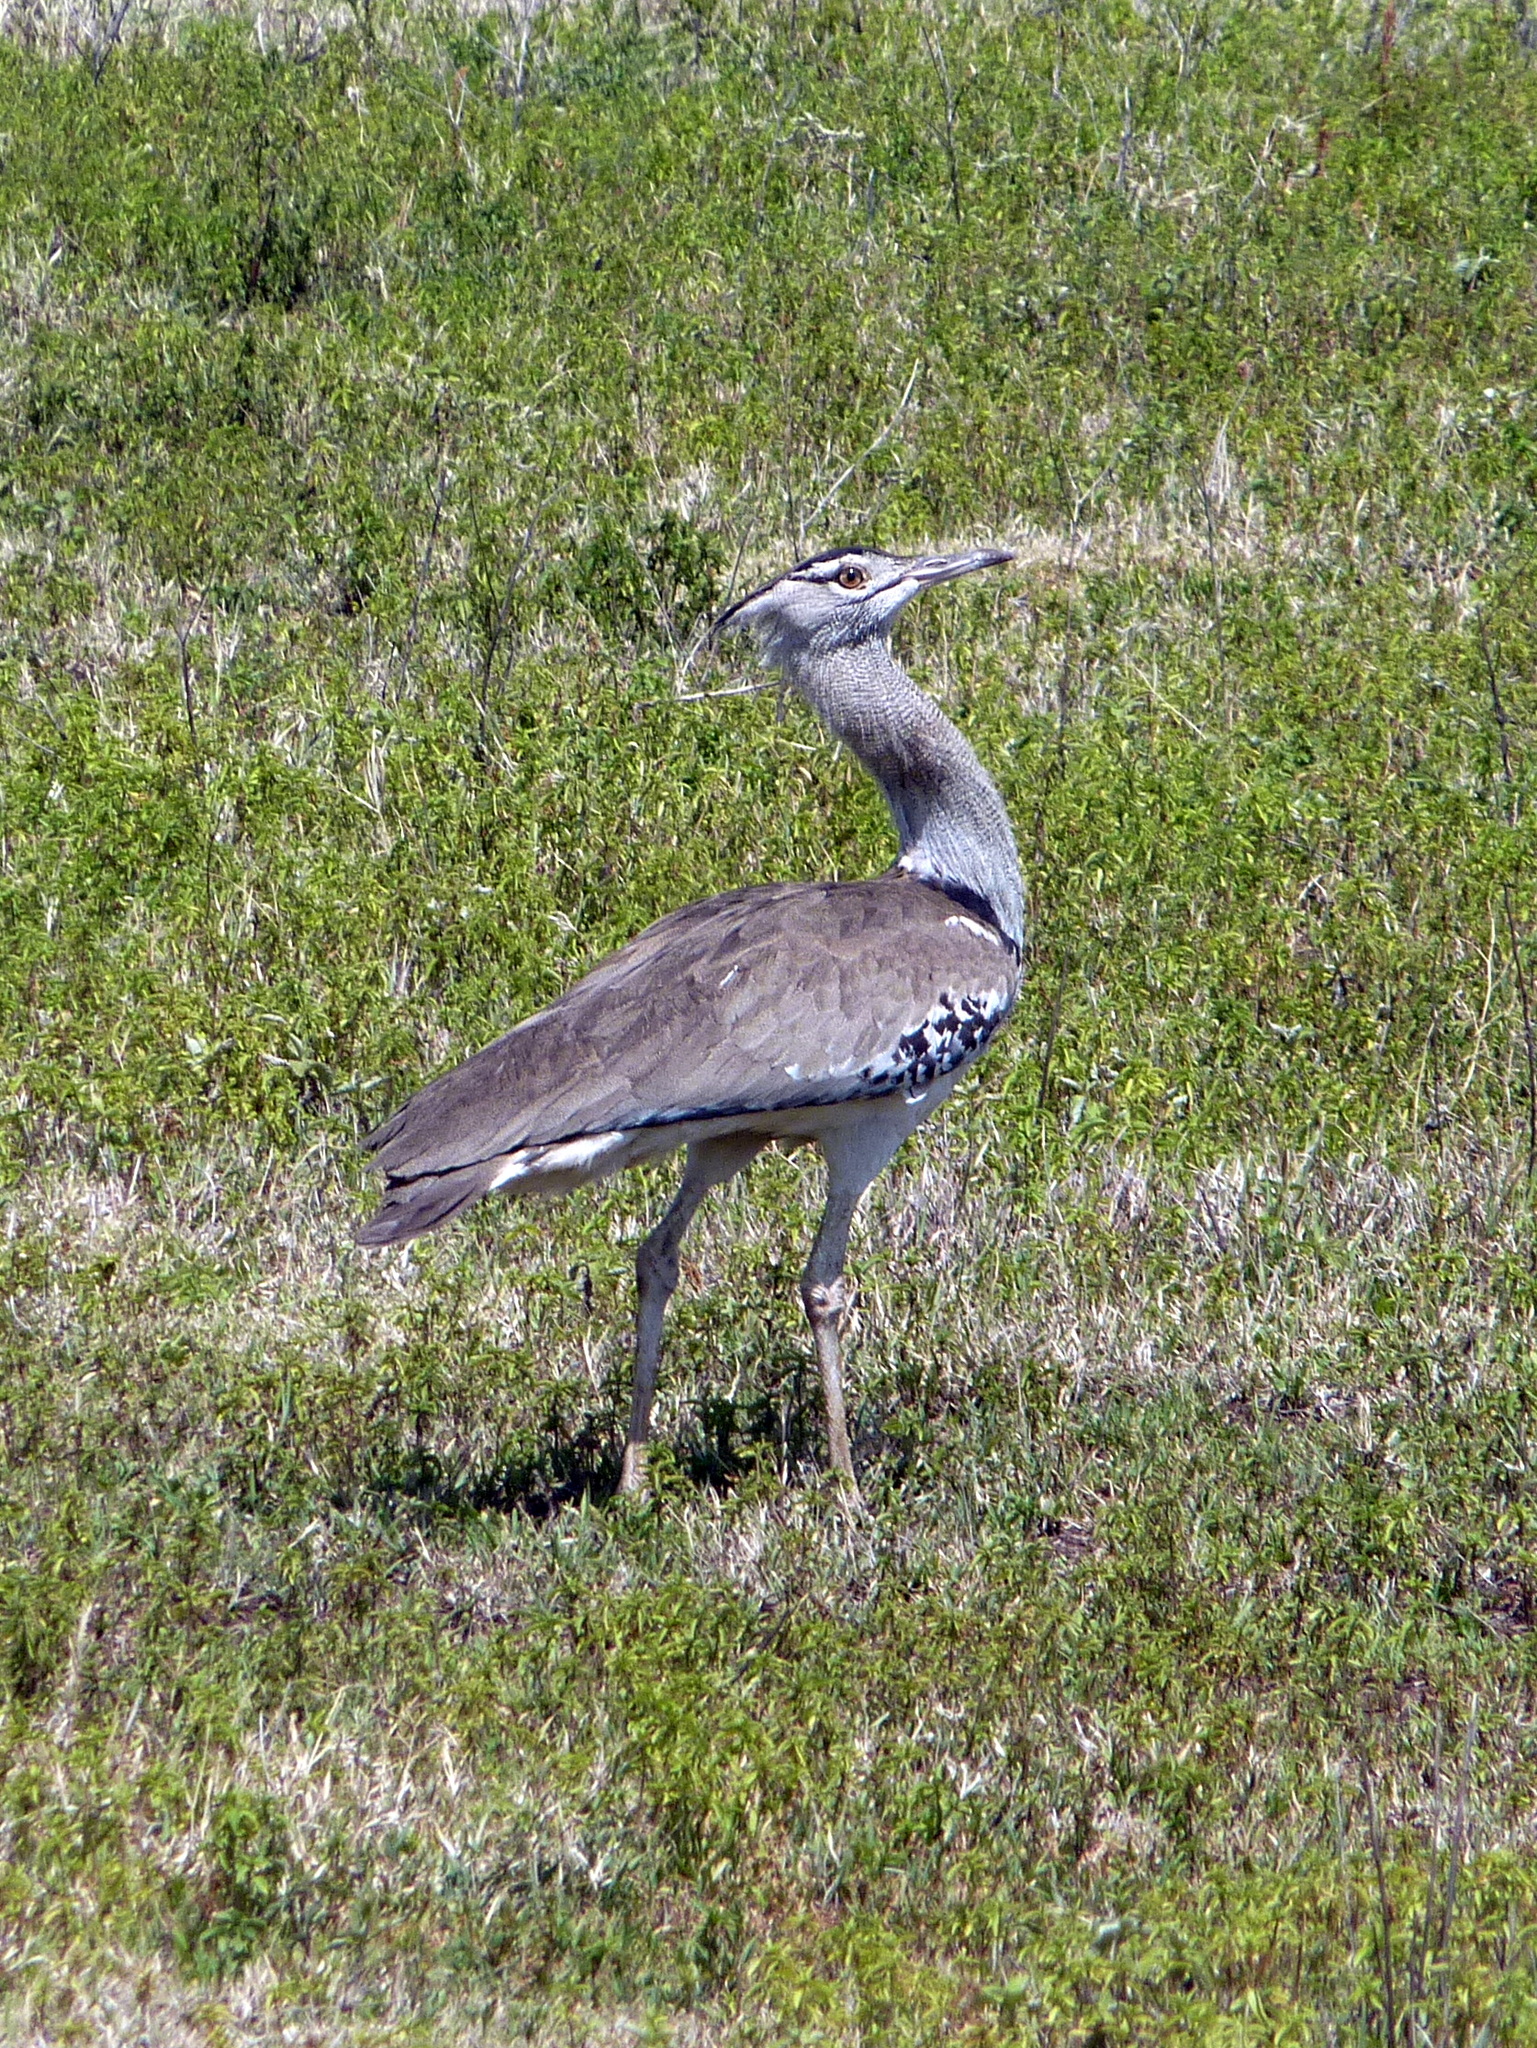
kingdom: Animalia
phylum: Chordata
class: Aves
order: Otidiformes
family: Otididae
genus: Ardeotis
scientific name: Ardeotis kori
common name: Kori bustard
